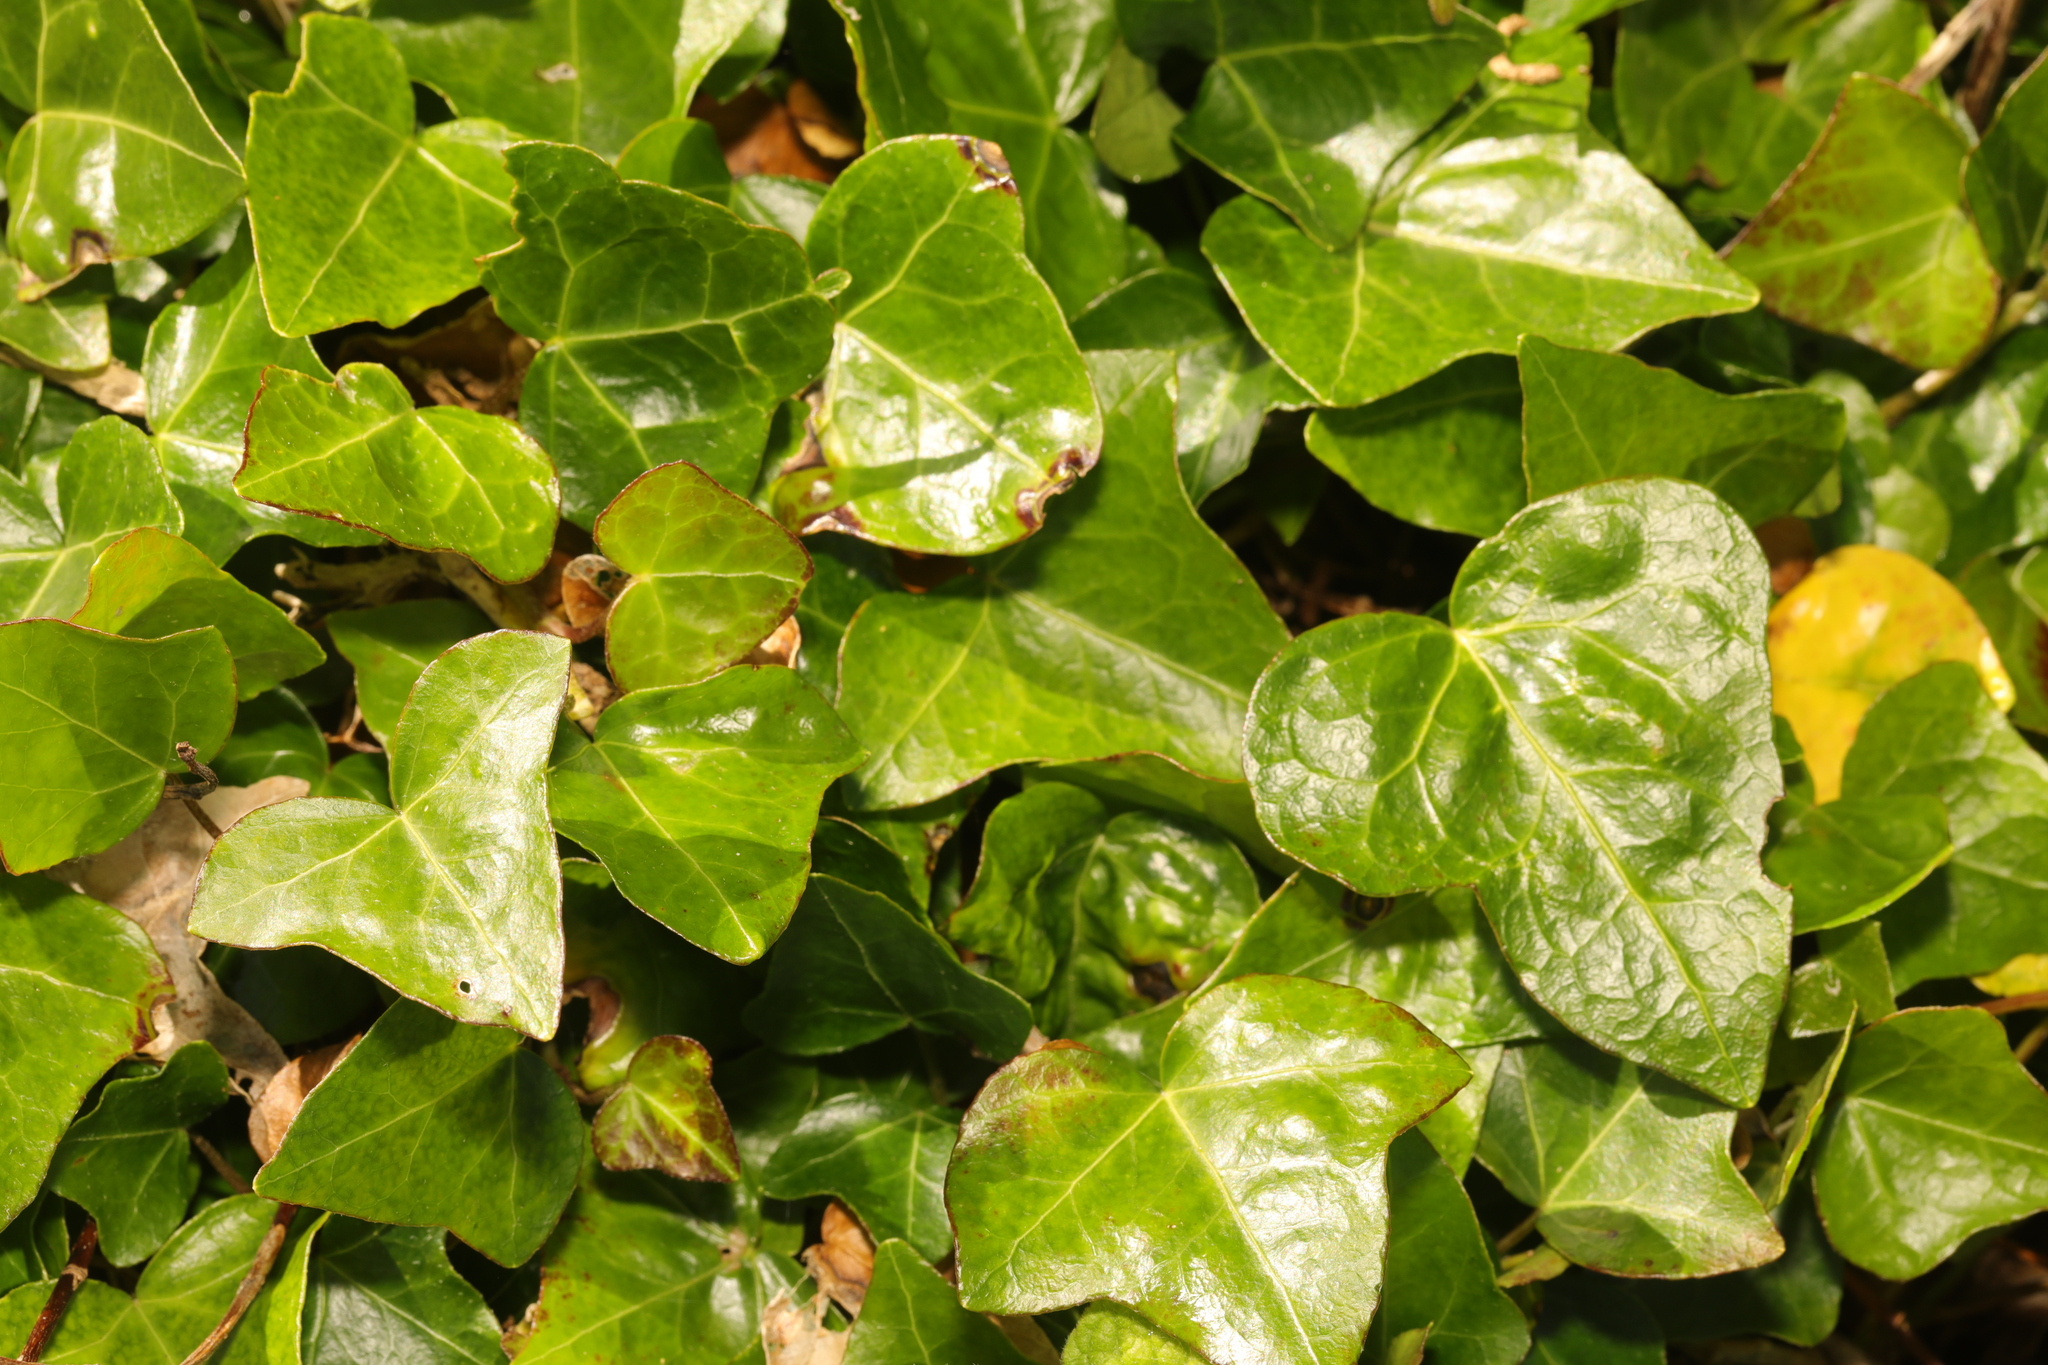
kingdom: Plantae
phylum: Tracheophyta
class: Magnoliopsida
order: Apiales
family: Araliaceae
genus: Hedera
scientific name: Hedera helix
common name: Ivy
